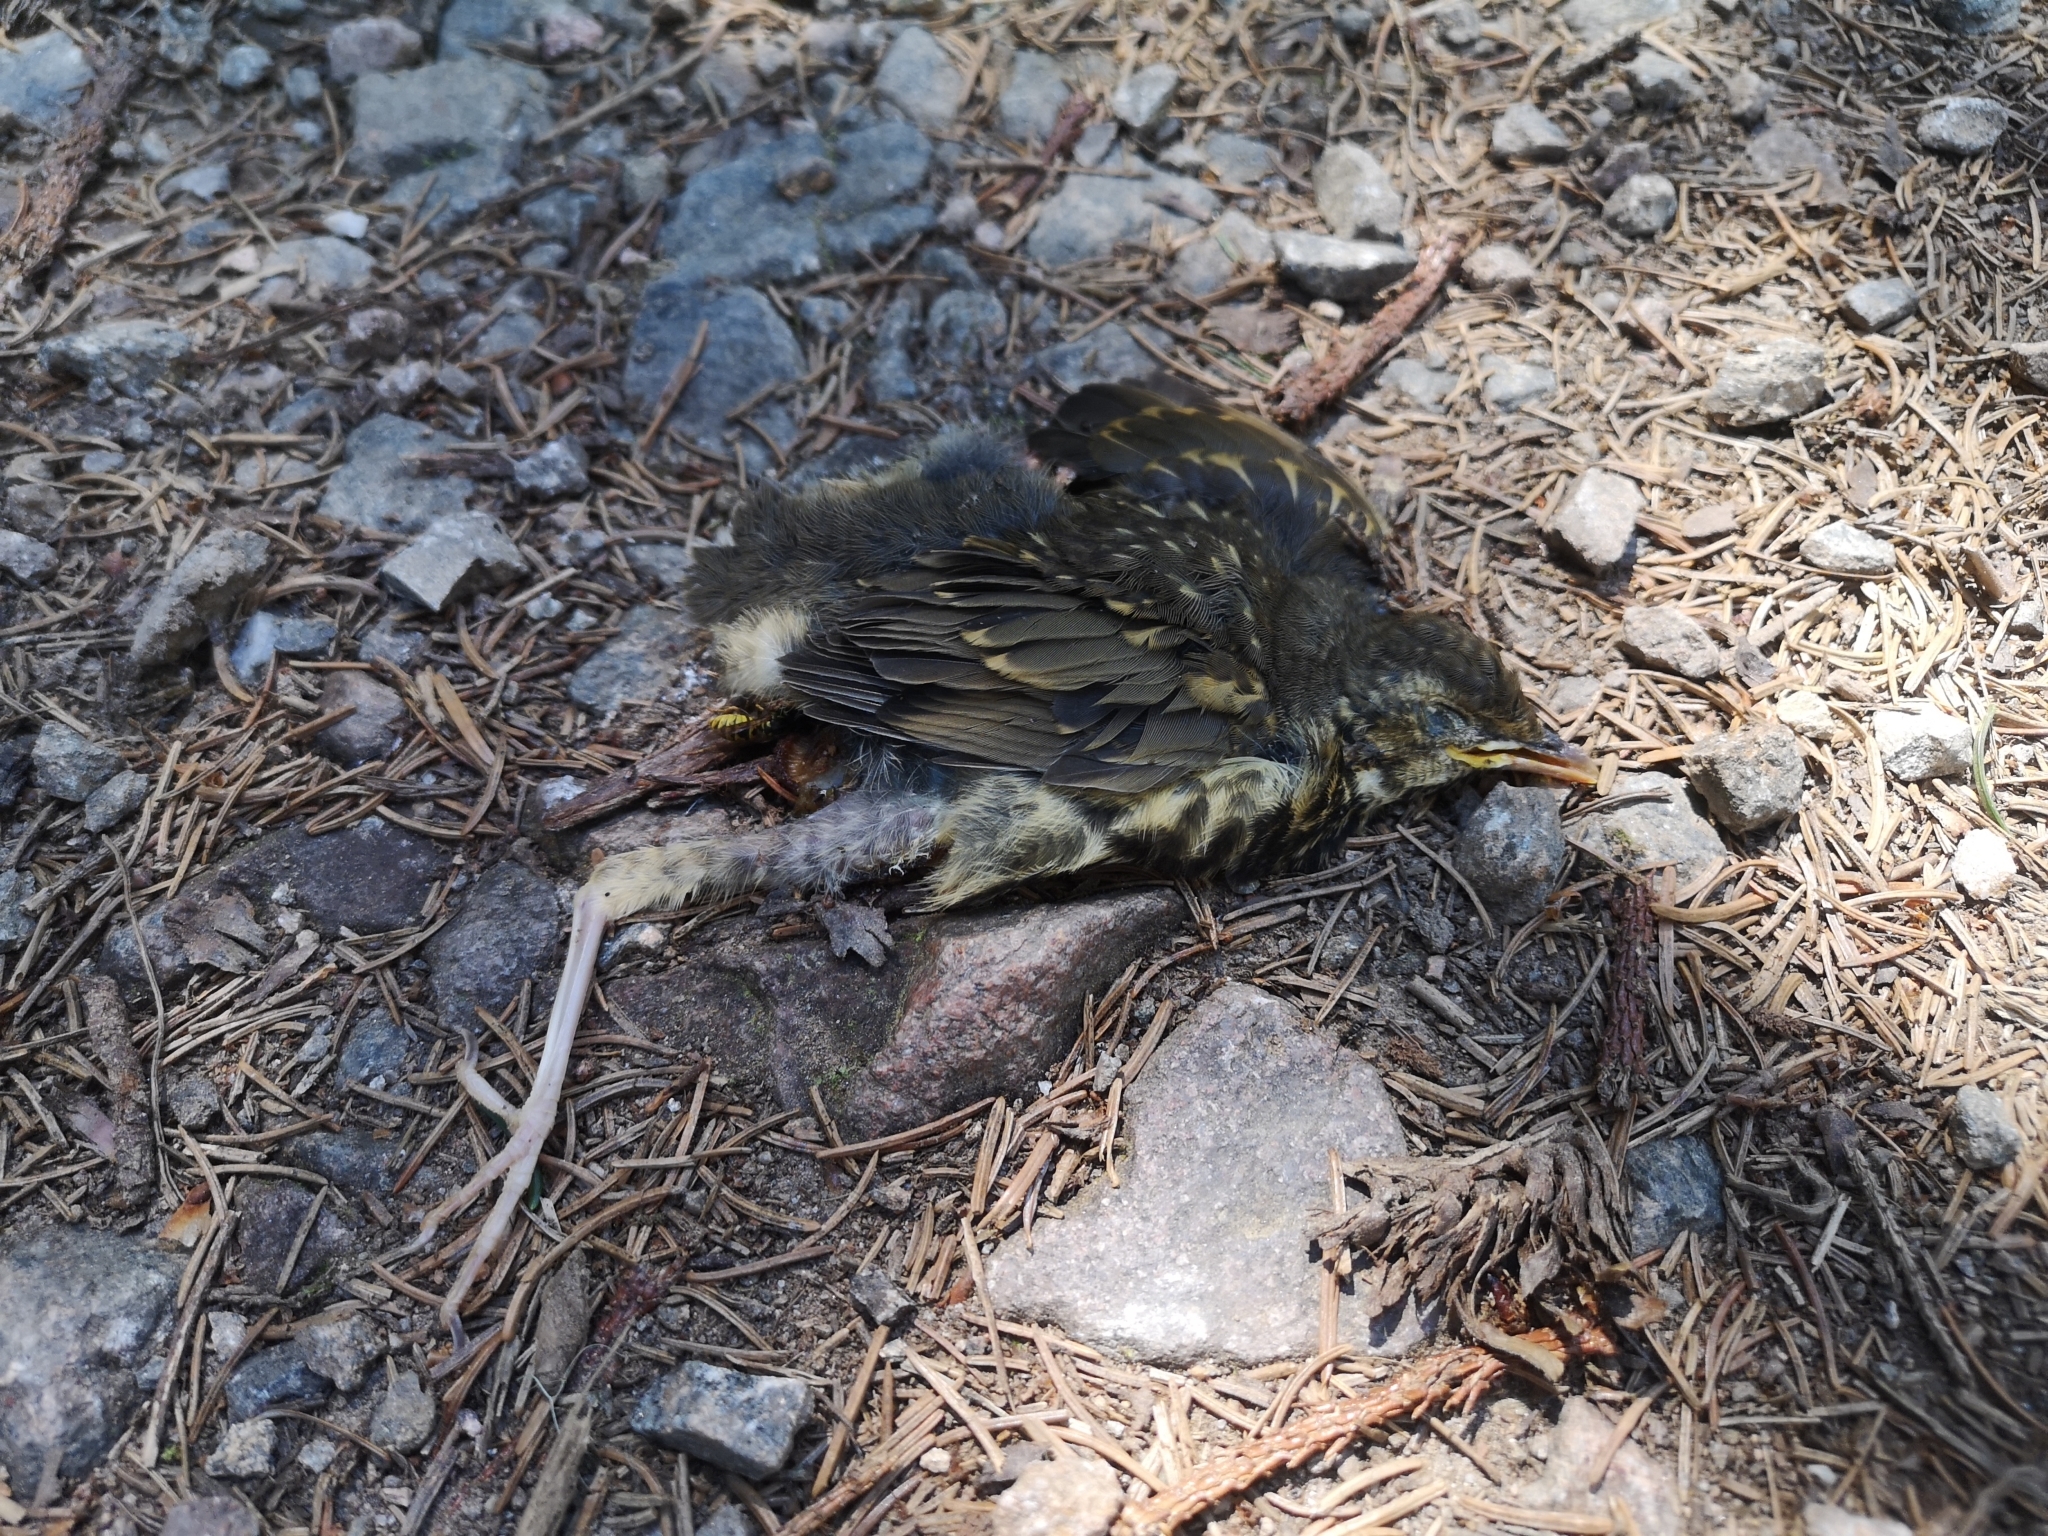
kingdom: Animalia
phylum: Chordata
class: Aves
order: Passeriformes
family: Turdidae
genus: Turdus
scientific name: Turdus philomelos
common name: Song thrush
